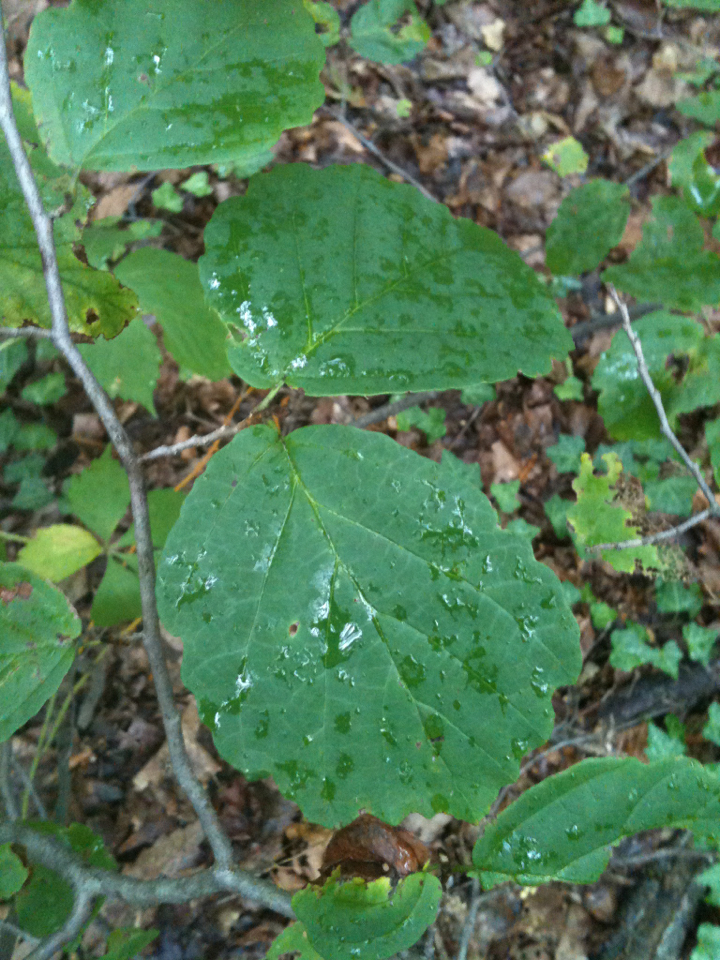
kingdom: Plantae
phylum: Tracheophyta
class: Magnoliopsida
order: Saxifragales
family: Hamamelidaceae
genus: Hamamelis
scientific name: Hamamelis virginiana
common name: Witch-hazel
